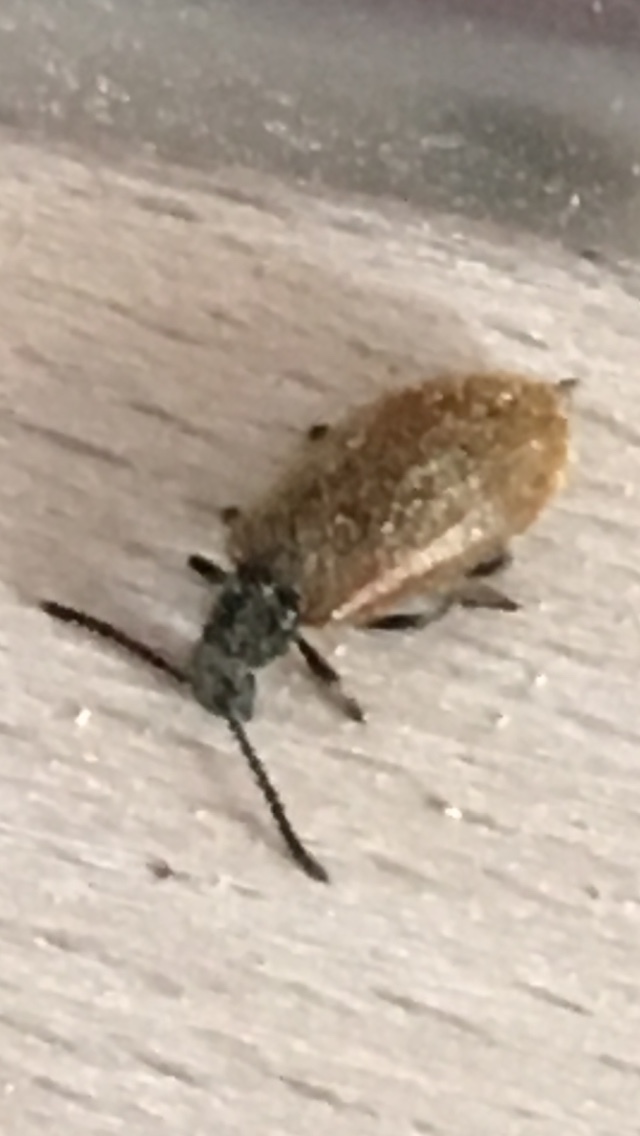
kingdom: Animalia
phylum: Arthropoda
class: Insecta
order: Coleoptera
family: Tenebrionidae
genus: Lagria
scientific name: Lagria hirta
